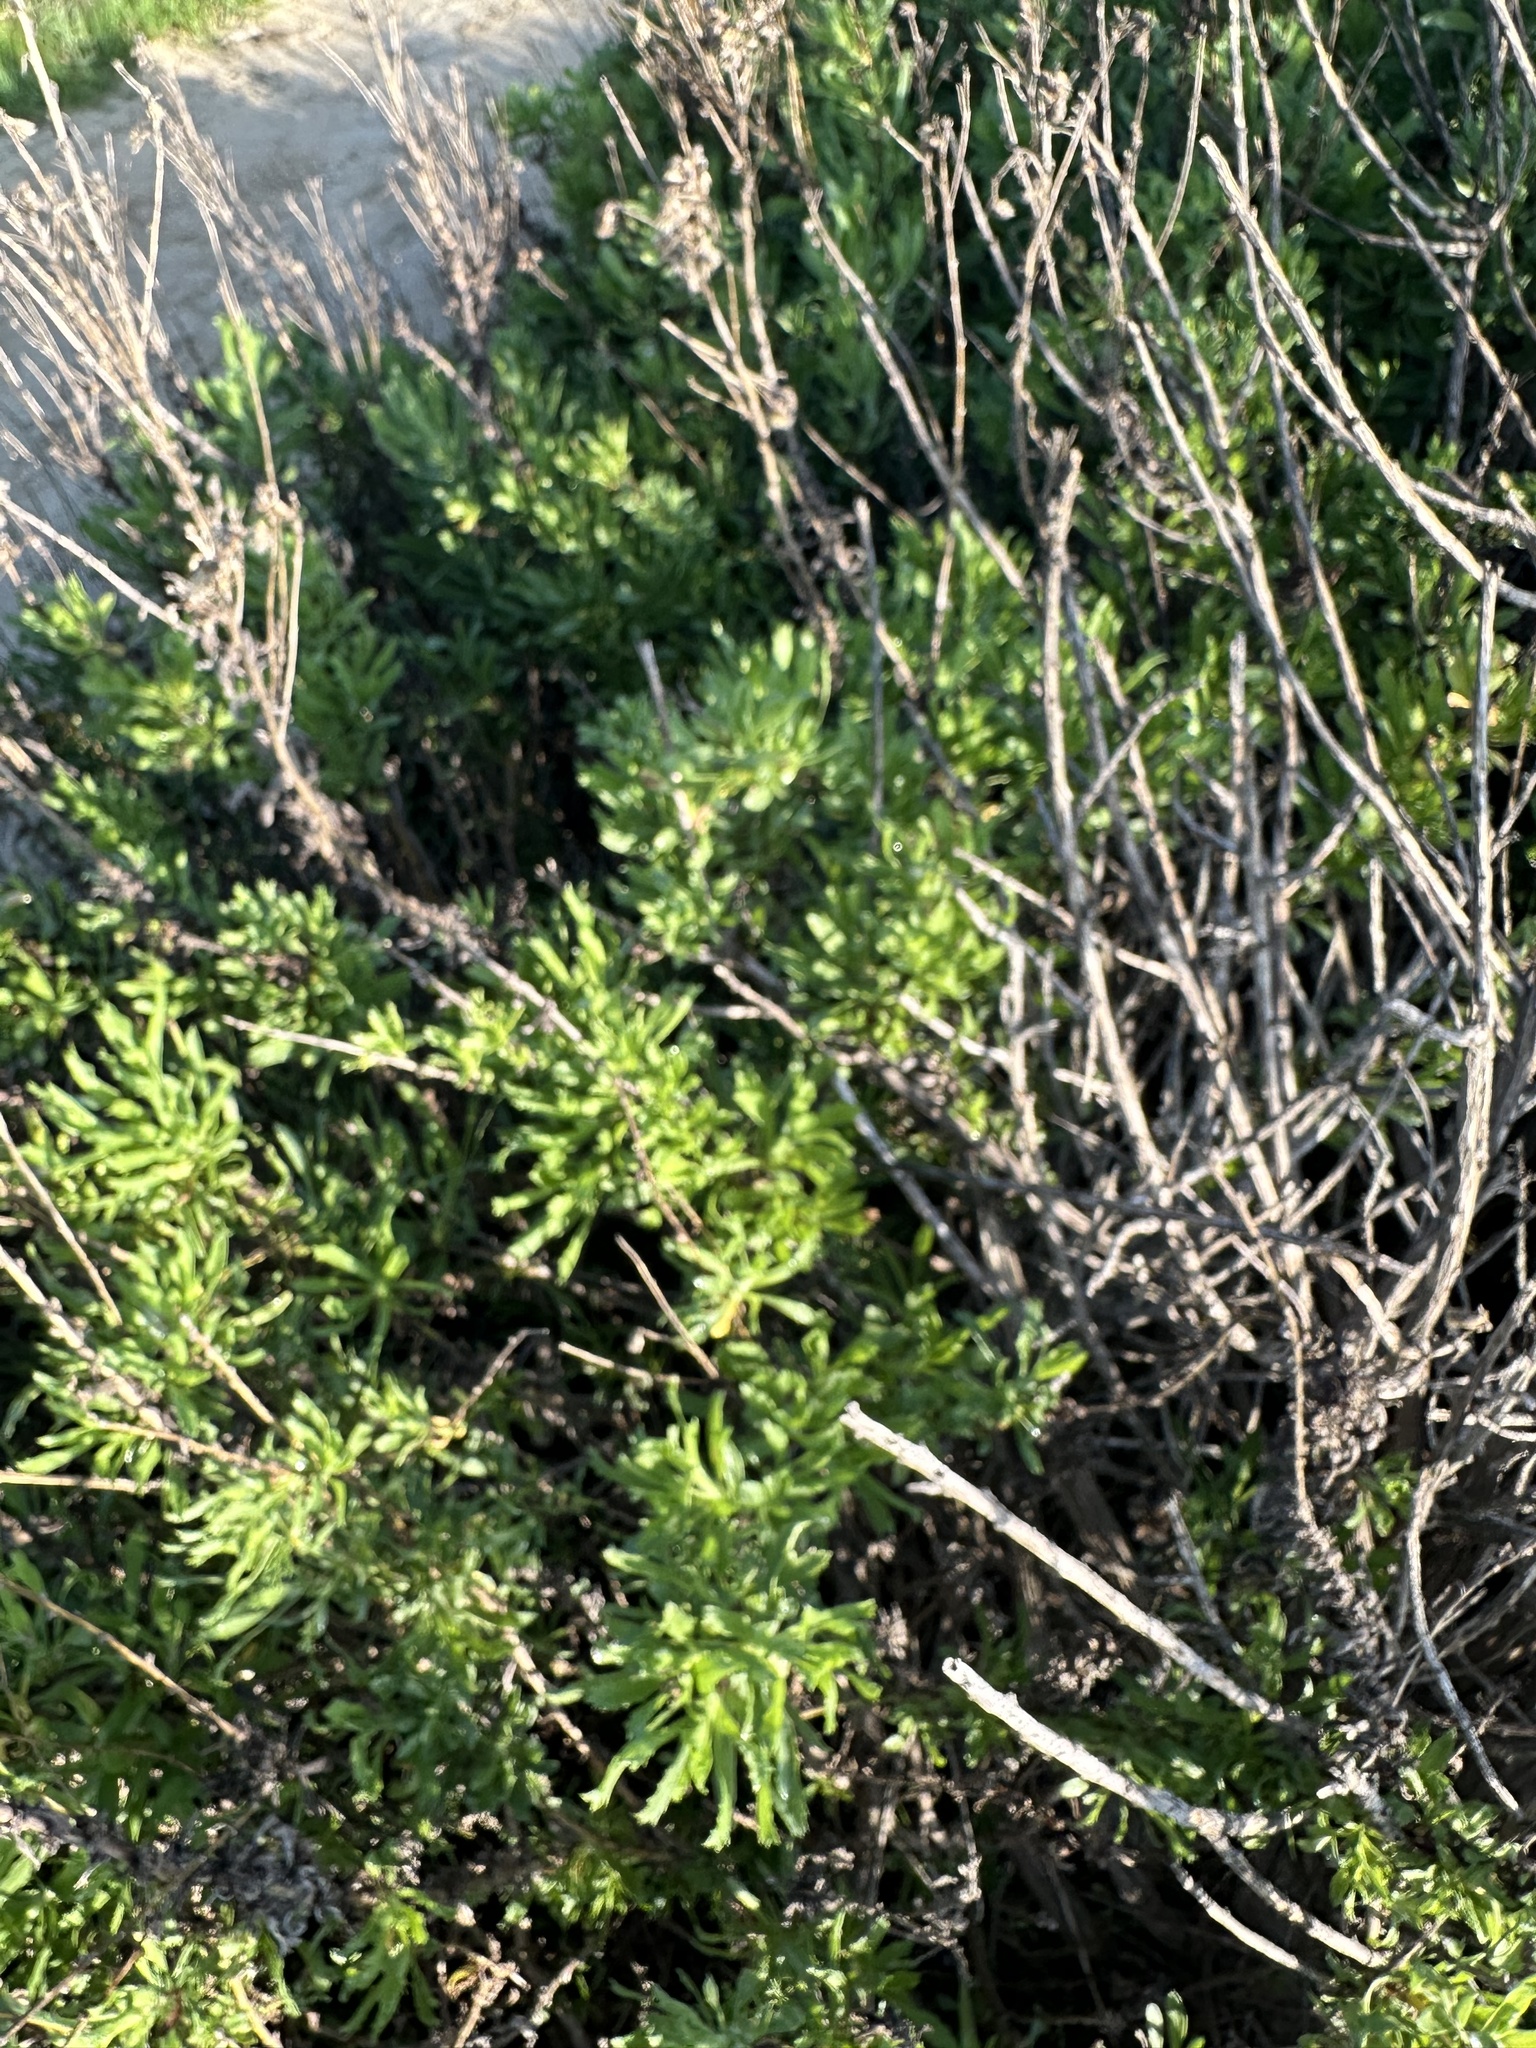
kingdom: Plantae
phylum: Tracheophyta
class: Magnoliopsida
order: Asterales
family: Asteraceae
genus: Isocoma
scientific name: Isocoma menziesii
